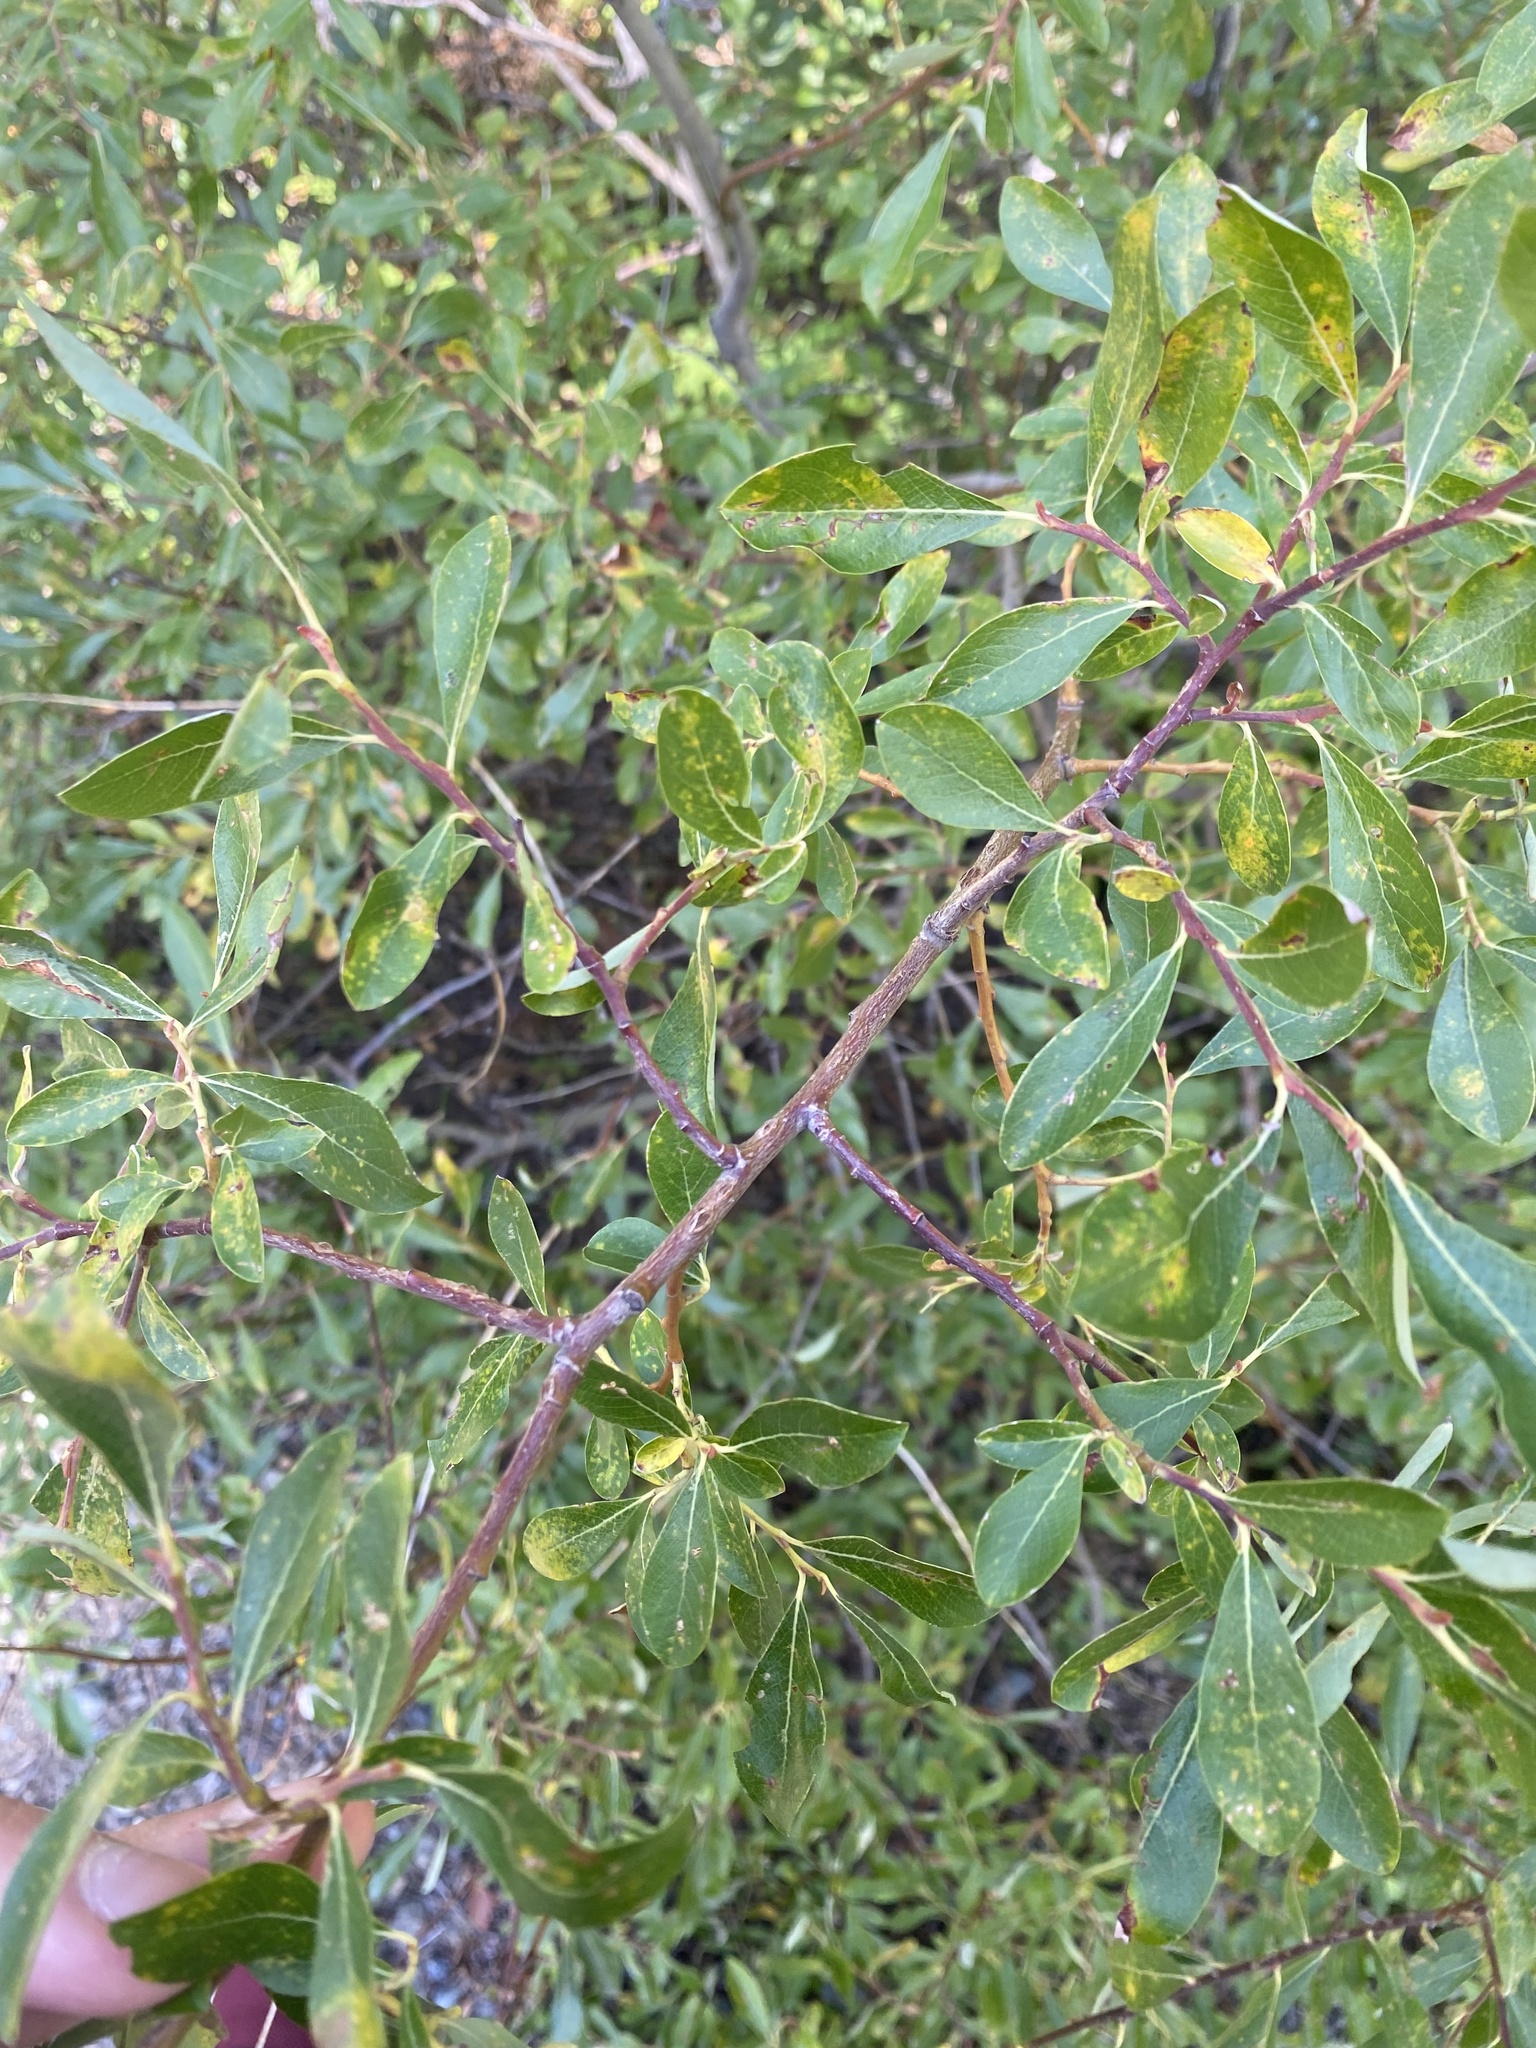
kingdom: Plantae
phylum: Tracheophyta
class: Magnoliopsida
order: Malpighiales
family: Salicaceae
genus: Salix
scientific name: Salix scouleriana
